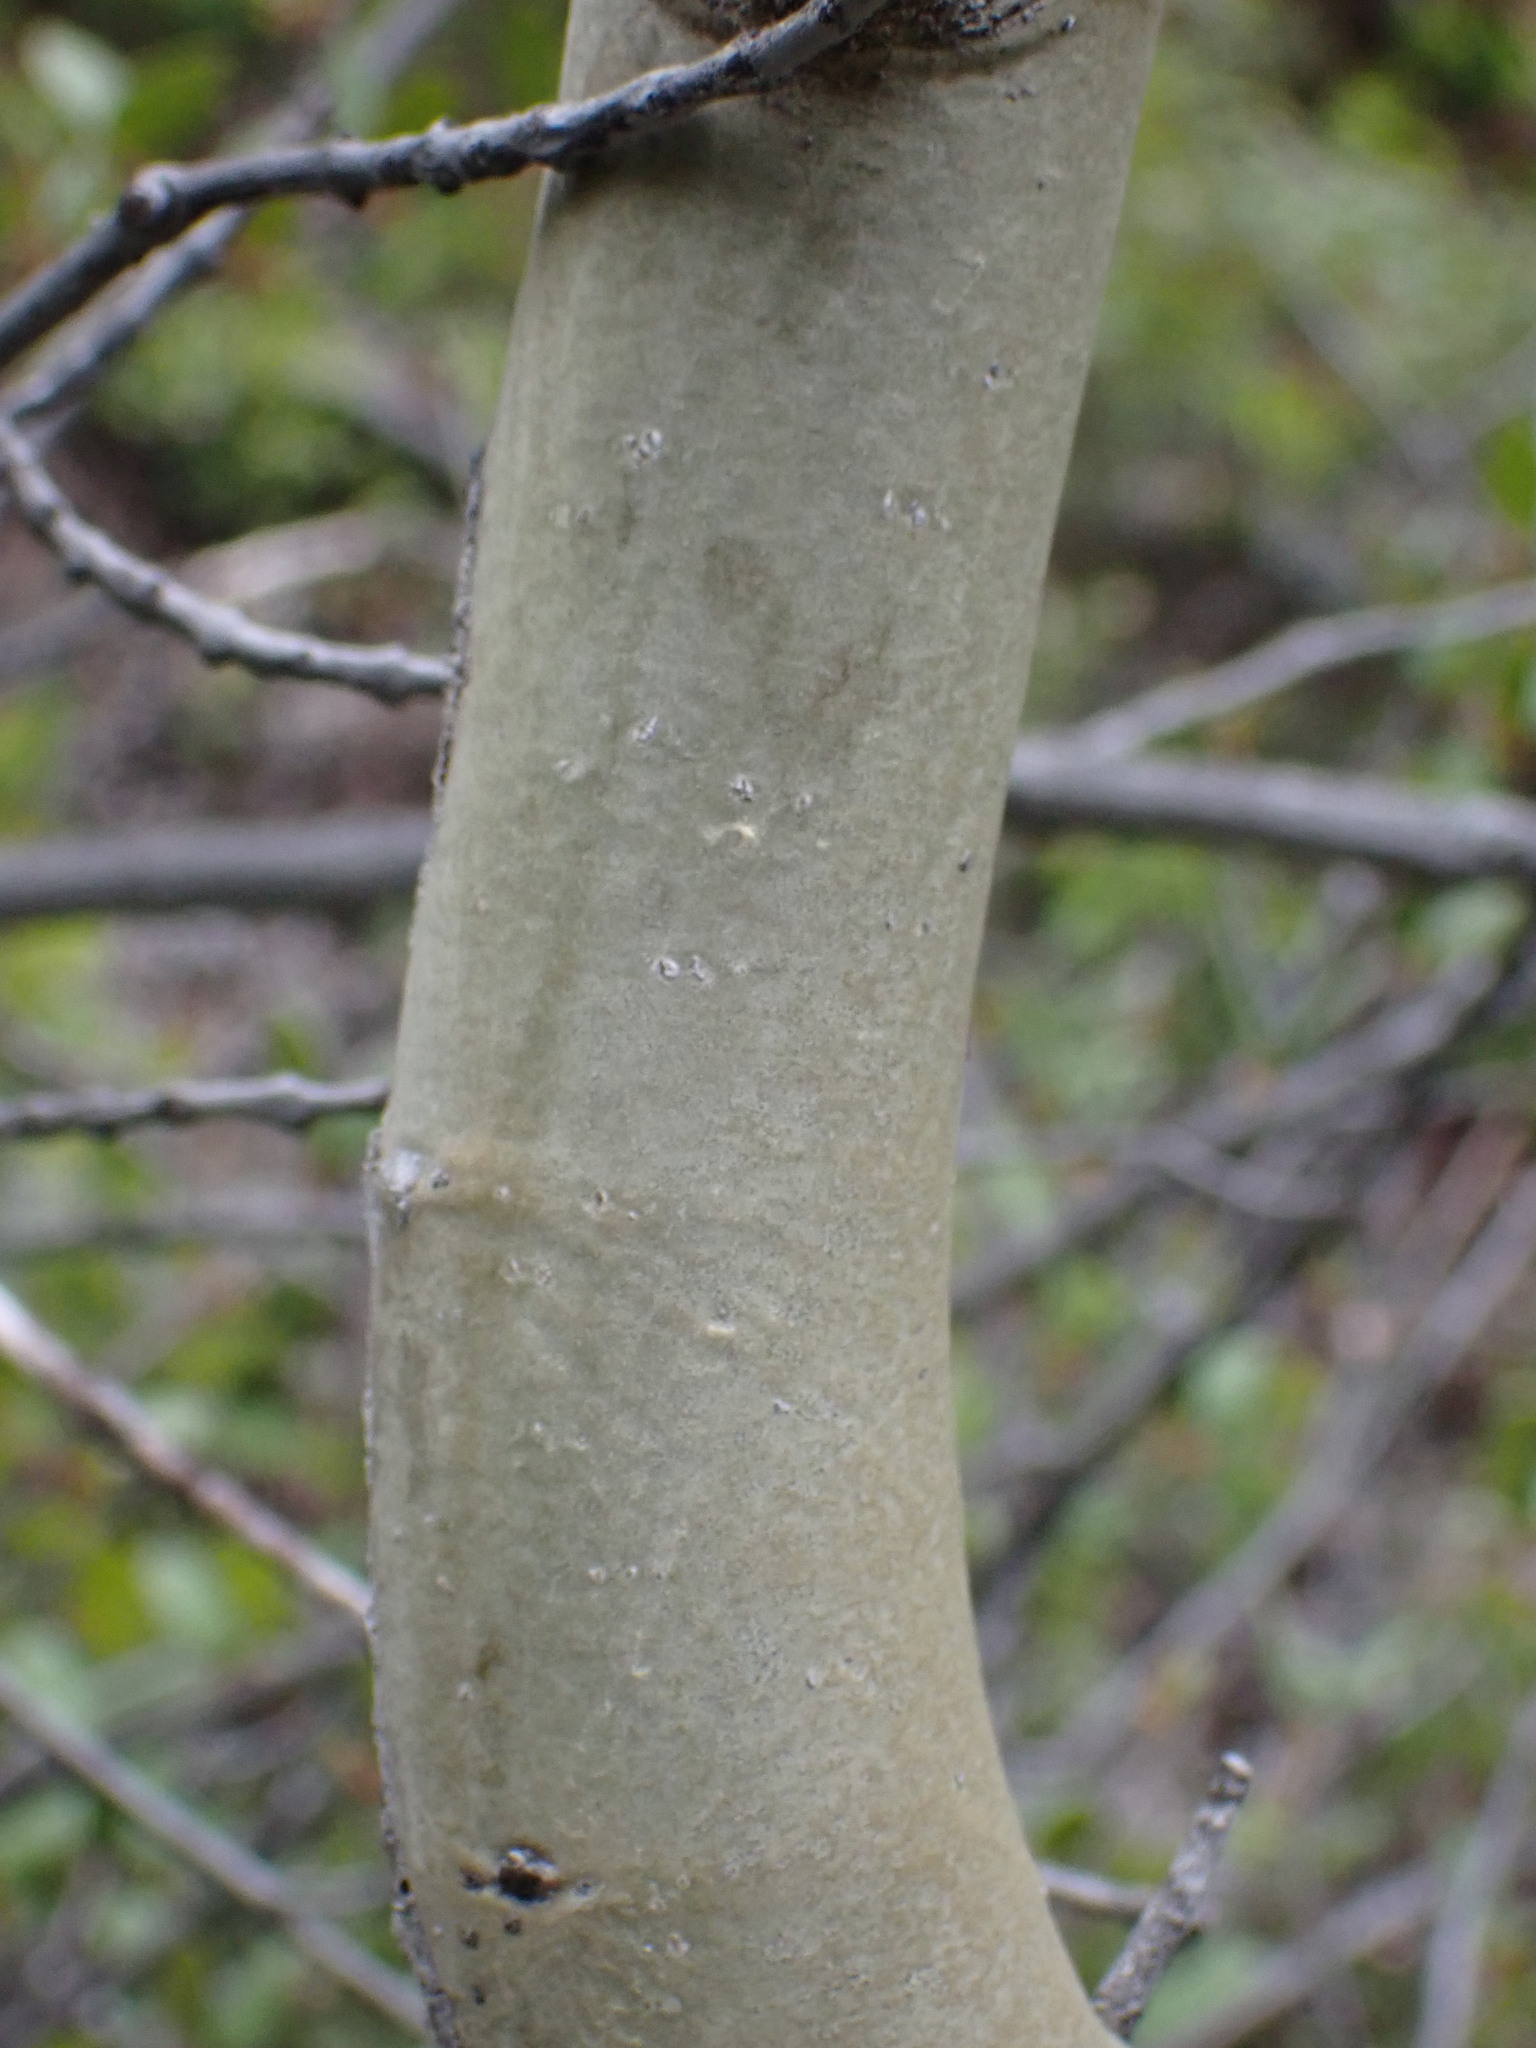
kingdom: Plantae
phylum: Tracheophyta
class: Magnoliopsida
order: Malpighiales
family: Salicaceae
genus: Populus
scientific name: Populus tremuloides
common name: Quaking aspen
